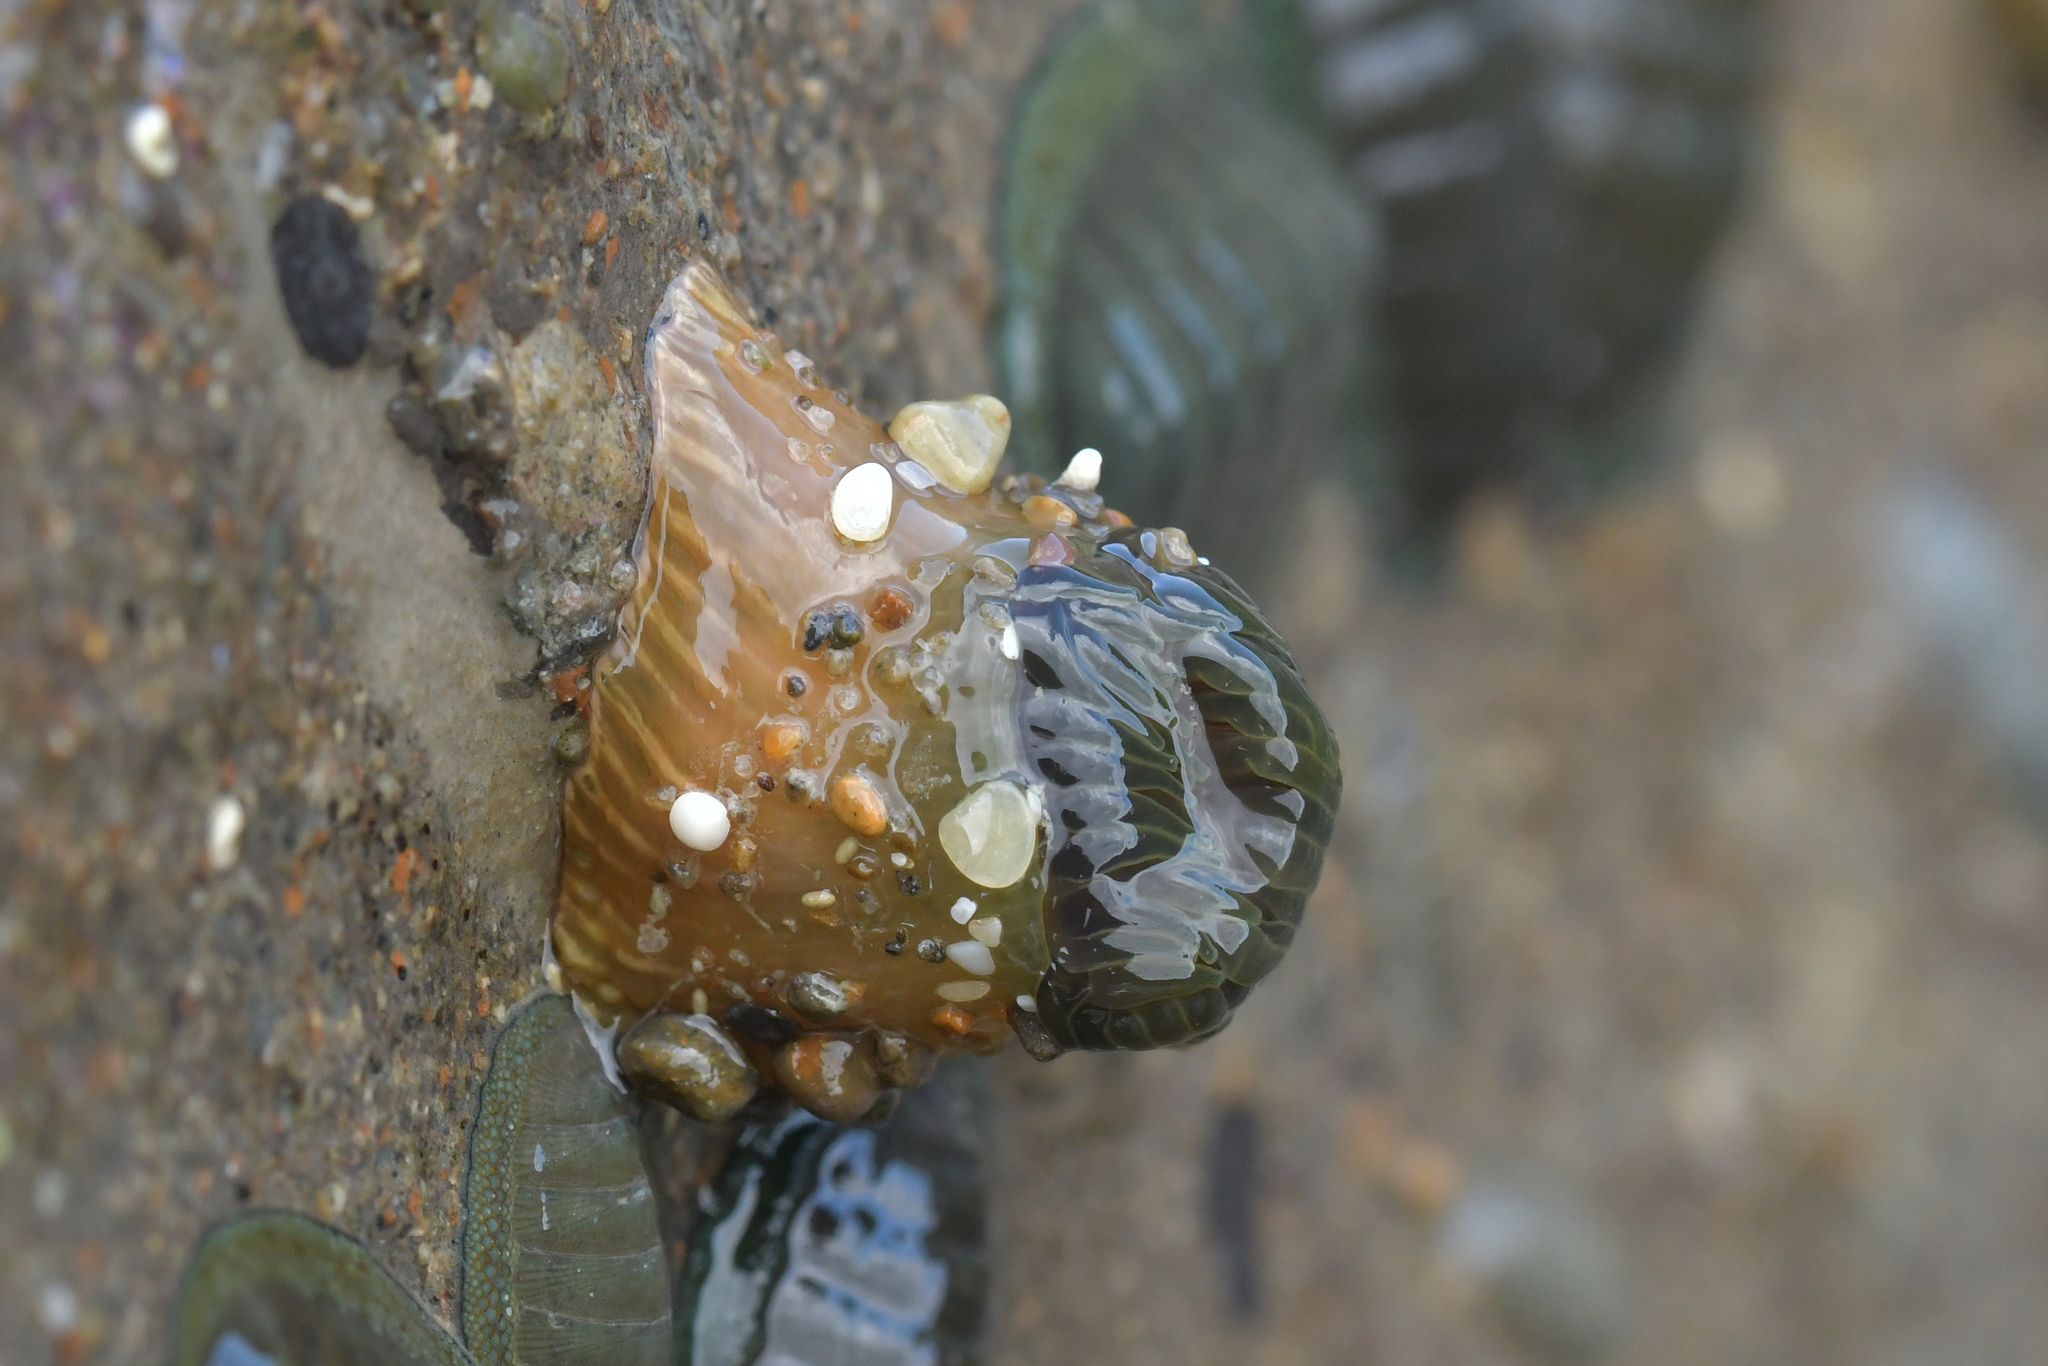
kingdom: Animalia
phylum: Cnidaria
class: Anthozoa
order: Actiniaria
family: Actiniidae
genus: Isactinia
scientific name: Isactinia olivacea
